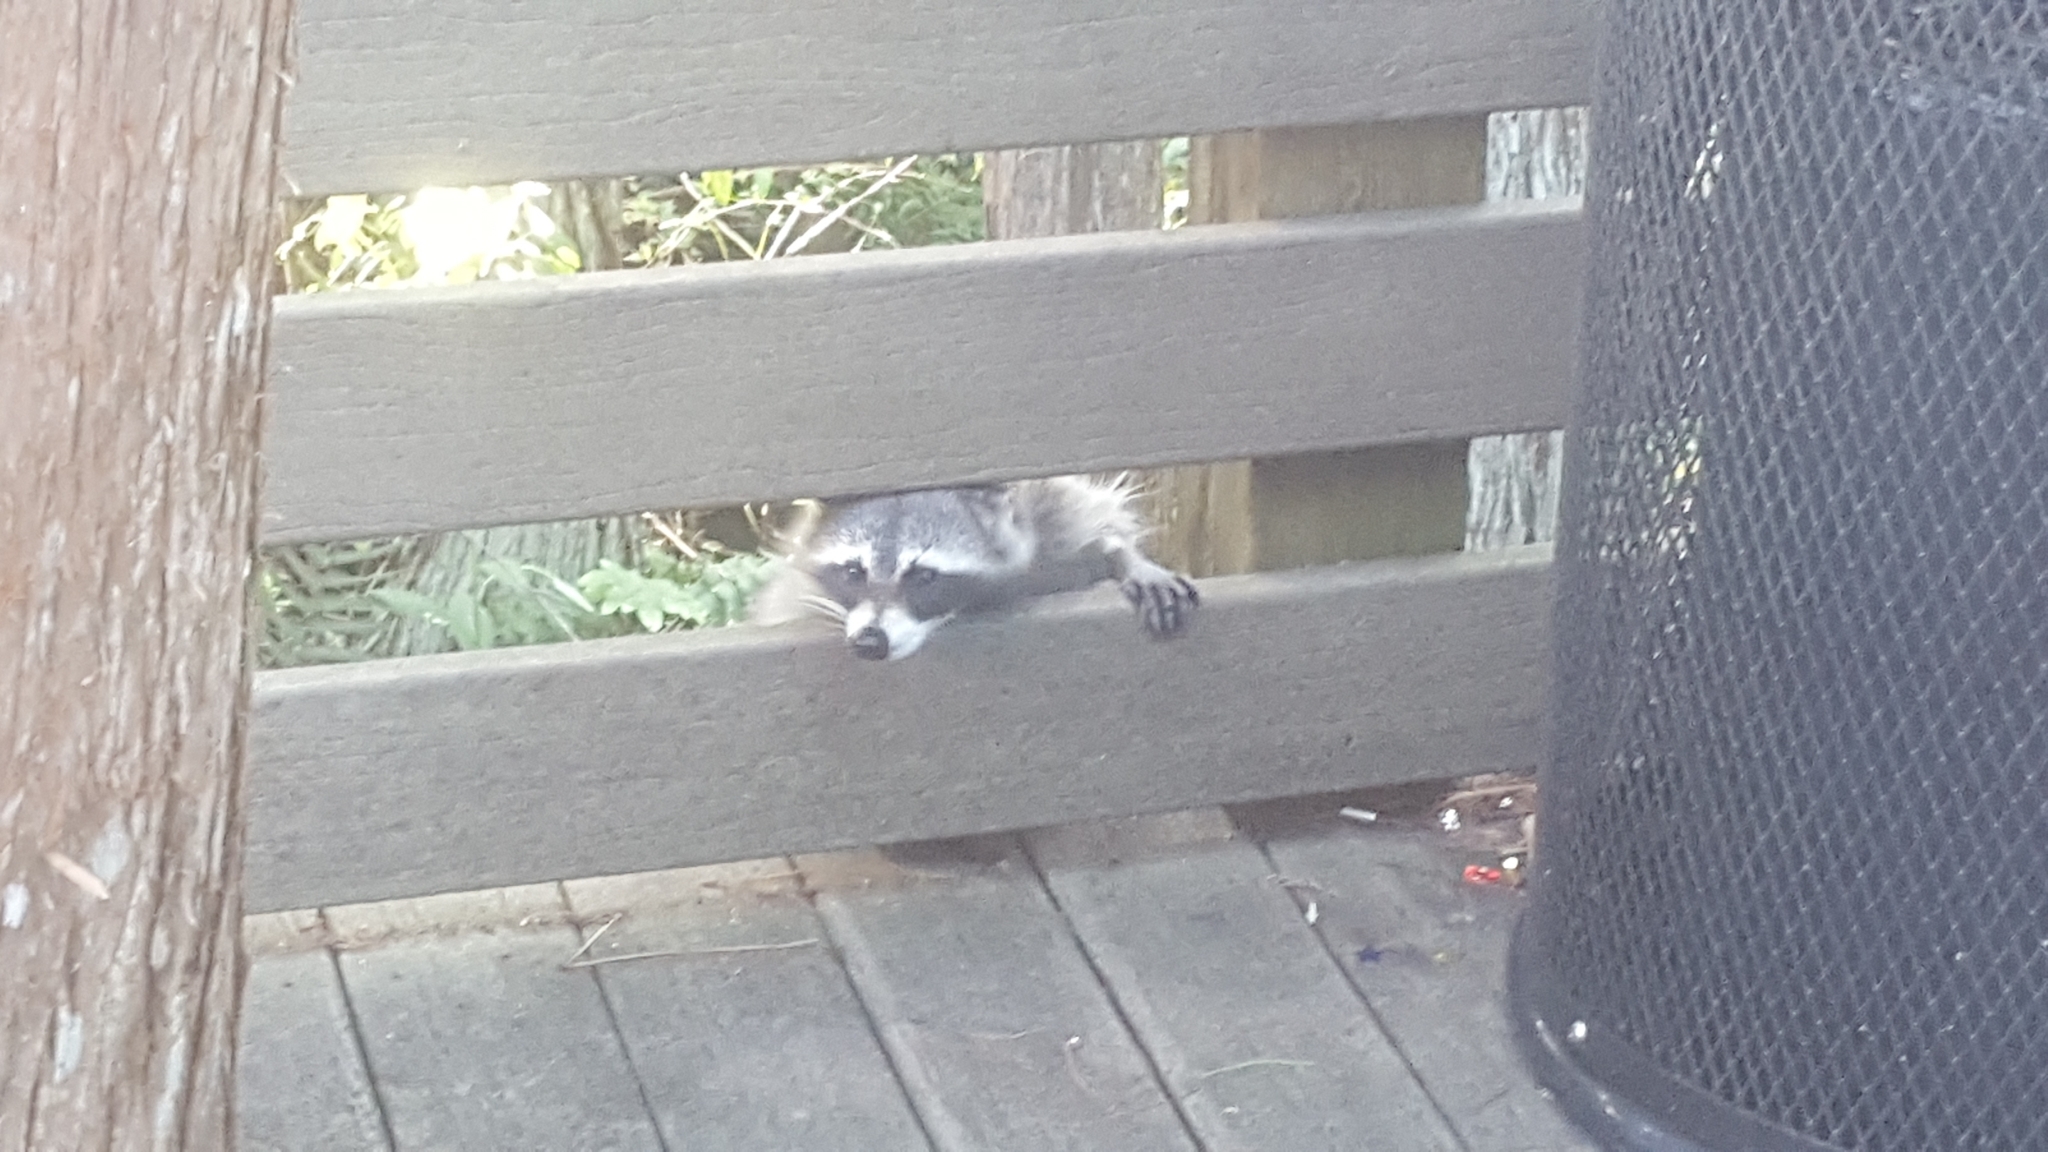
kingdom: Animalia
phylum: Chordata
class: Mammalia
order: Carnivora
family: Procyonidae
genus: Procyon
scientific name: Procyon lotor
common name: Raccoon
